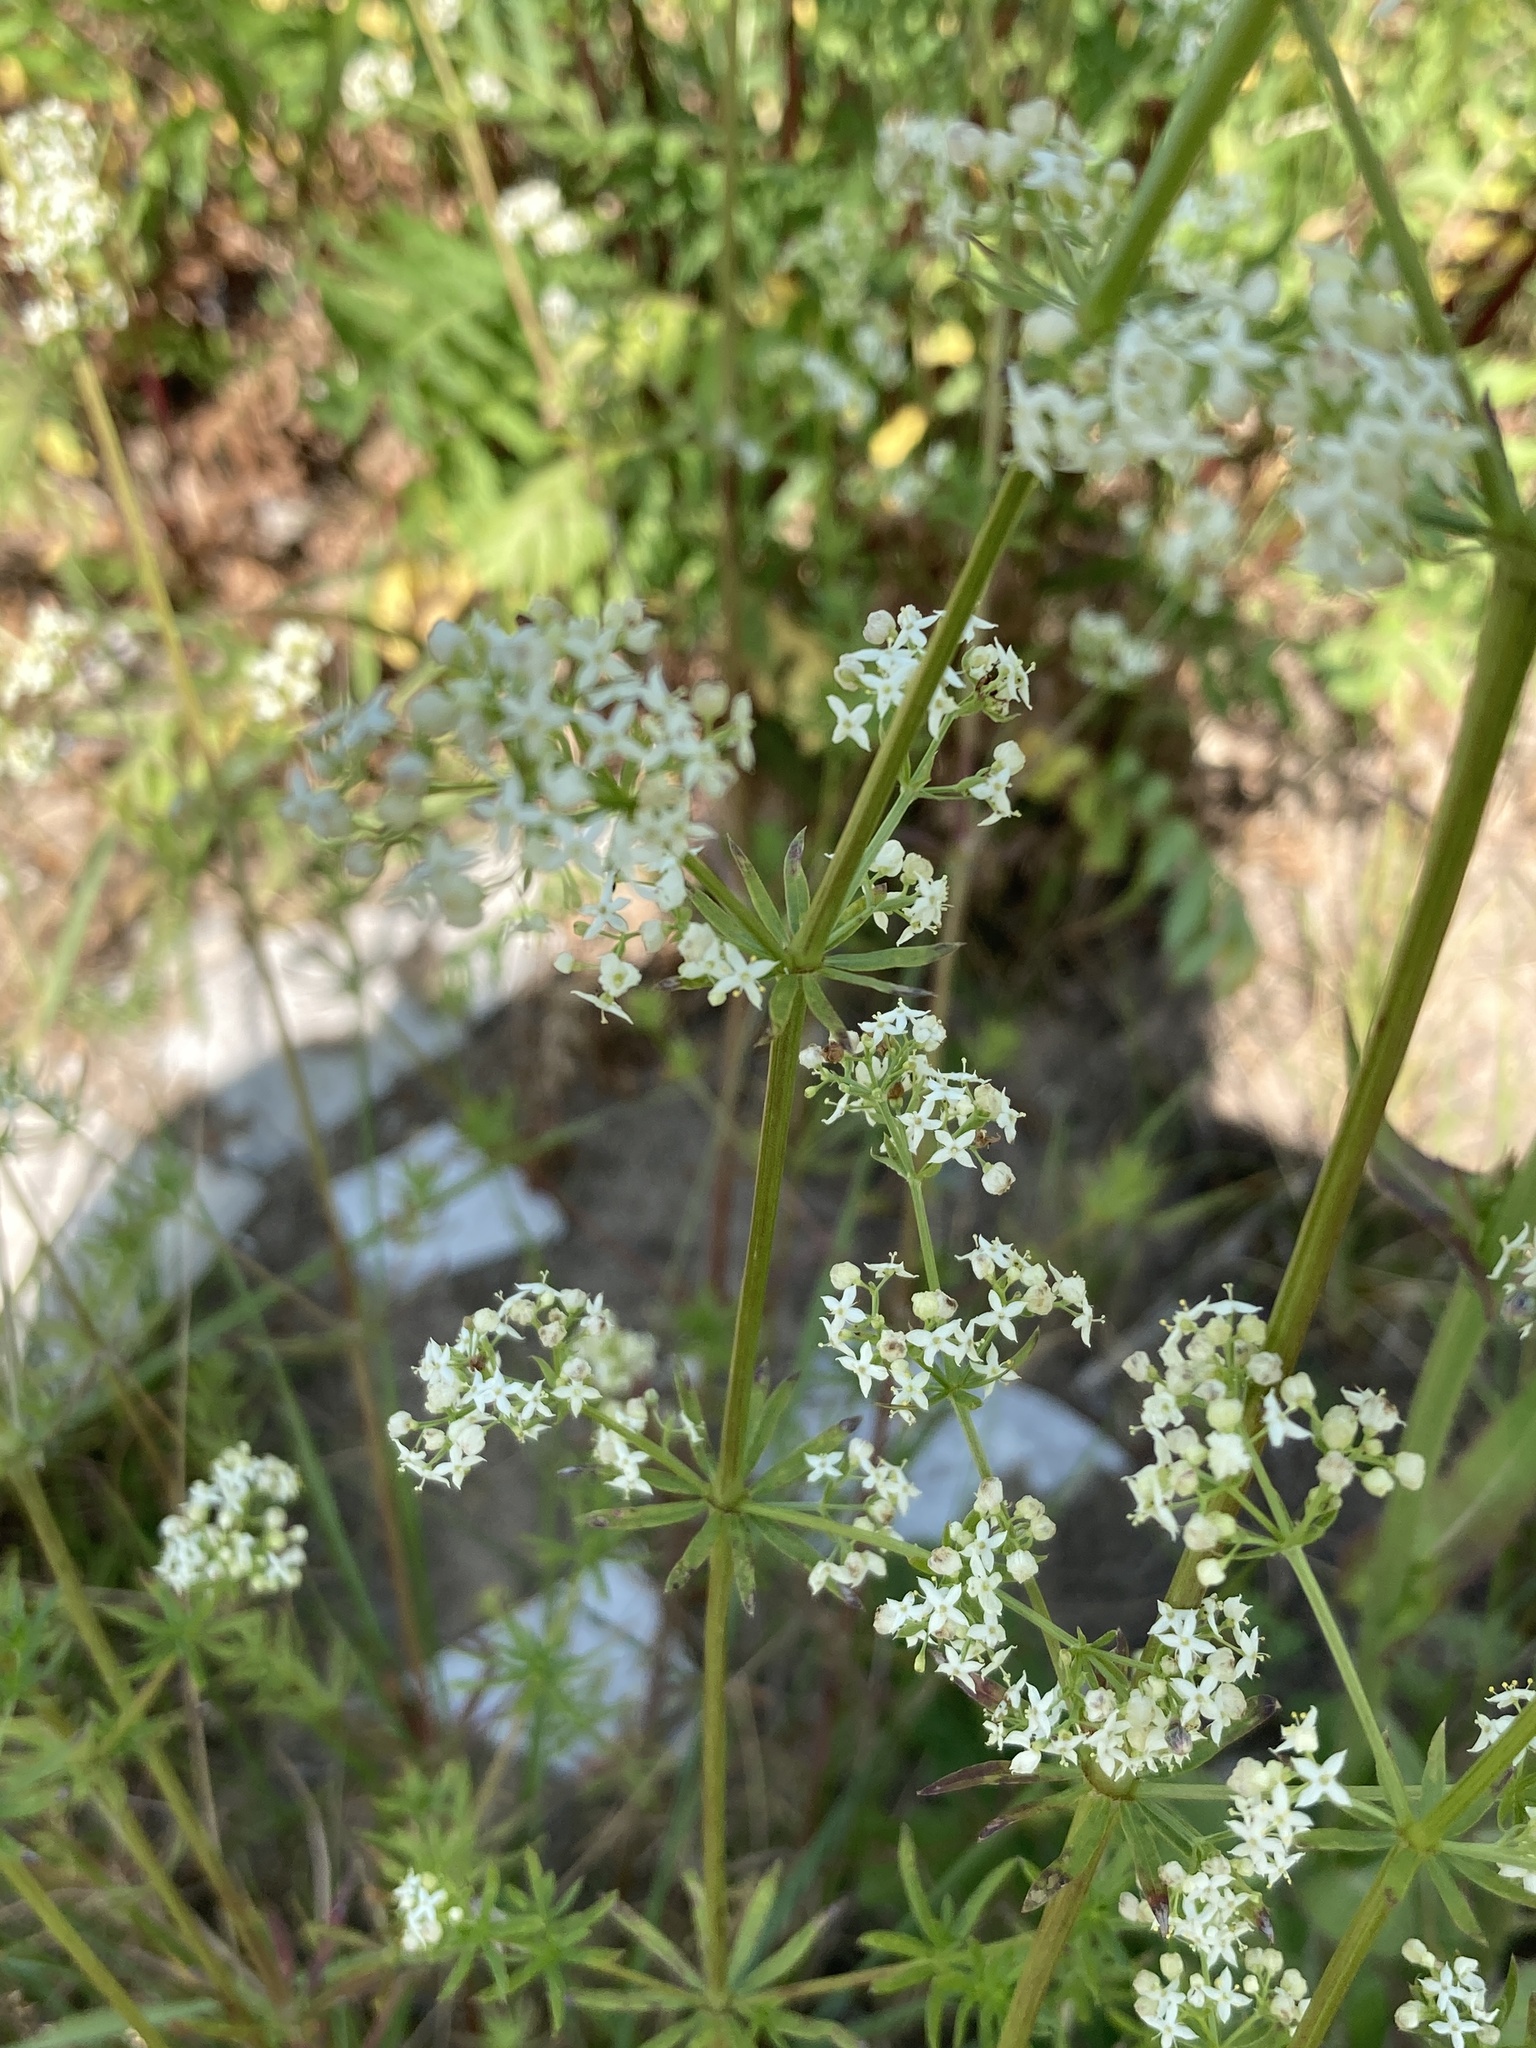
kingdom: Plantae
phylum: Tracheophyta
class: Magnoliopsida
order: Gentianales
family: Rubiaceae
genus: Galium
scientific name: Galium mollugo
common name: Hedge bedstraw
